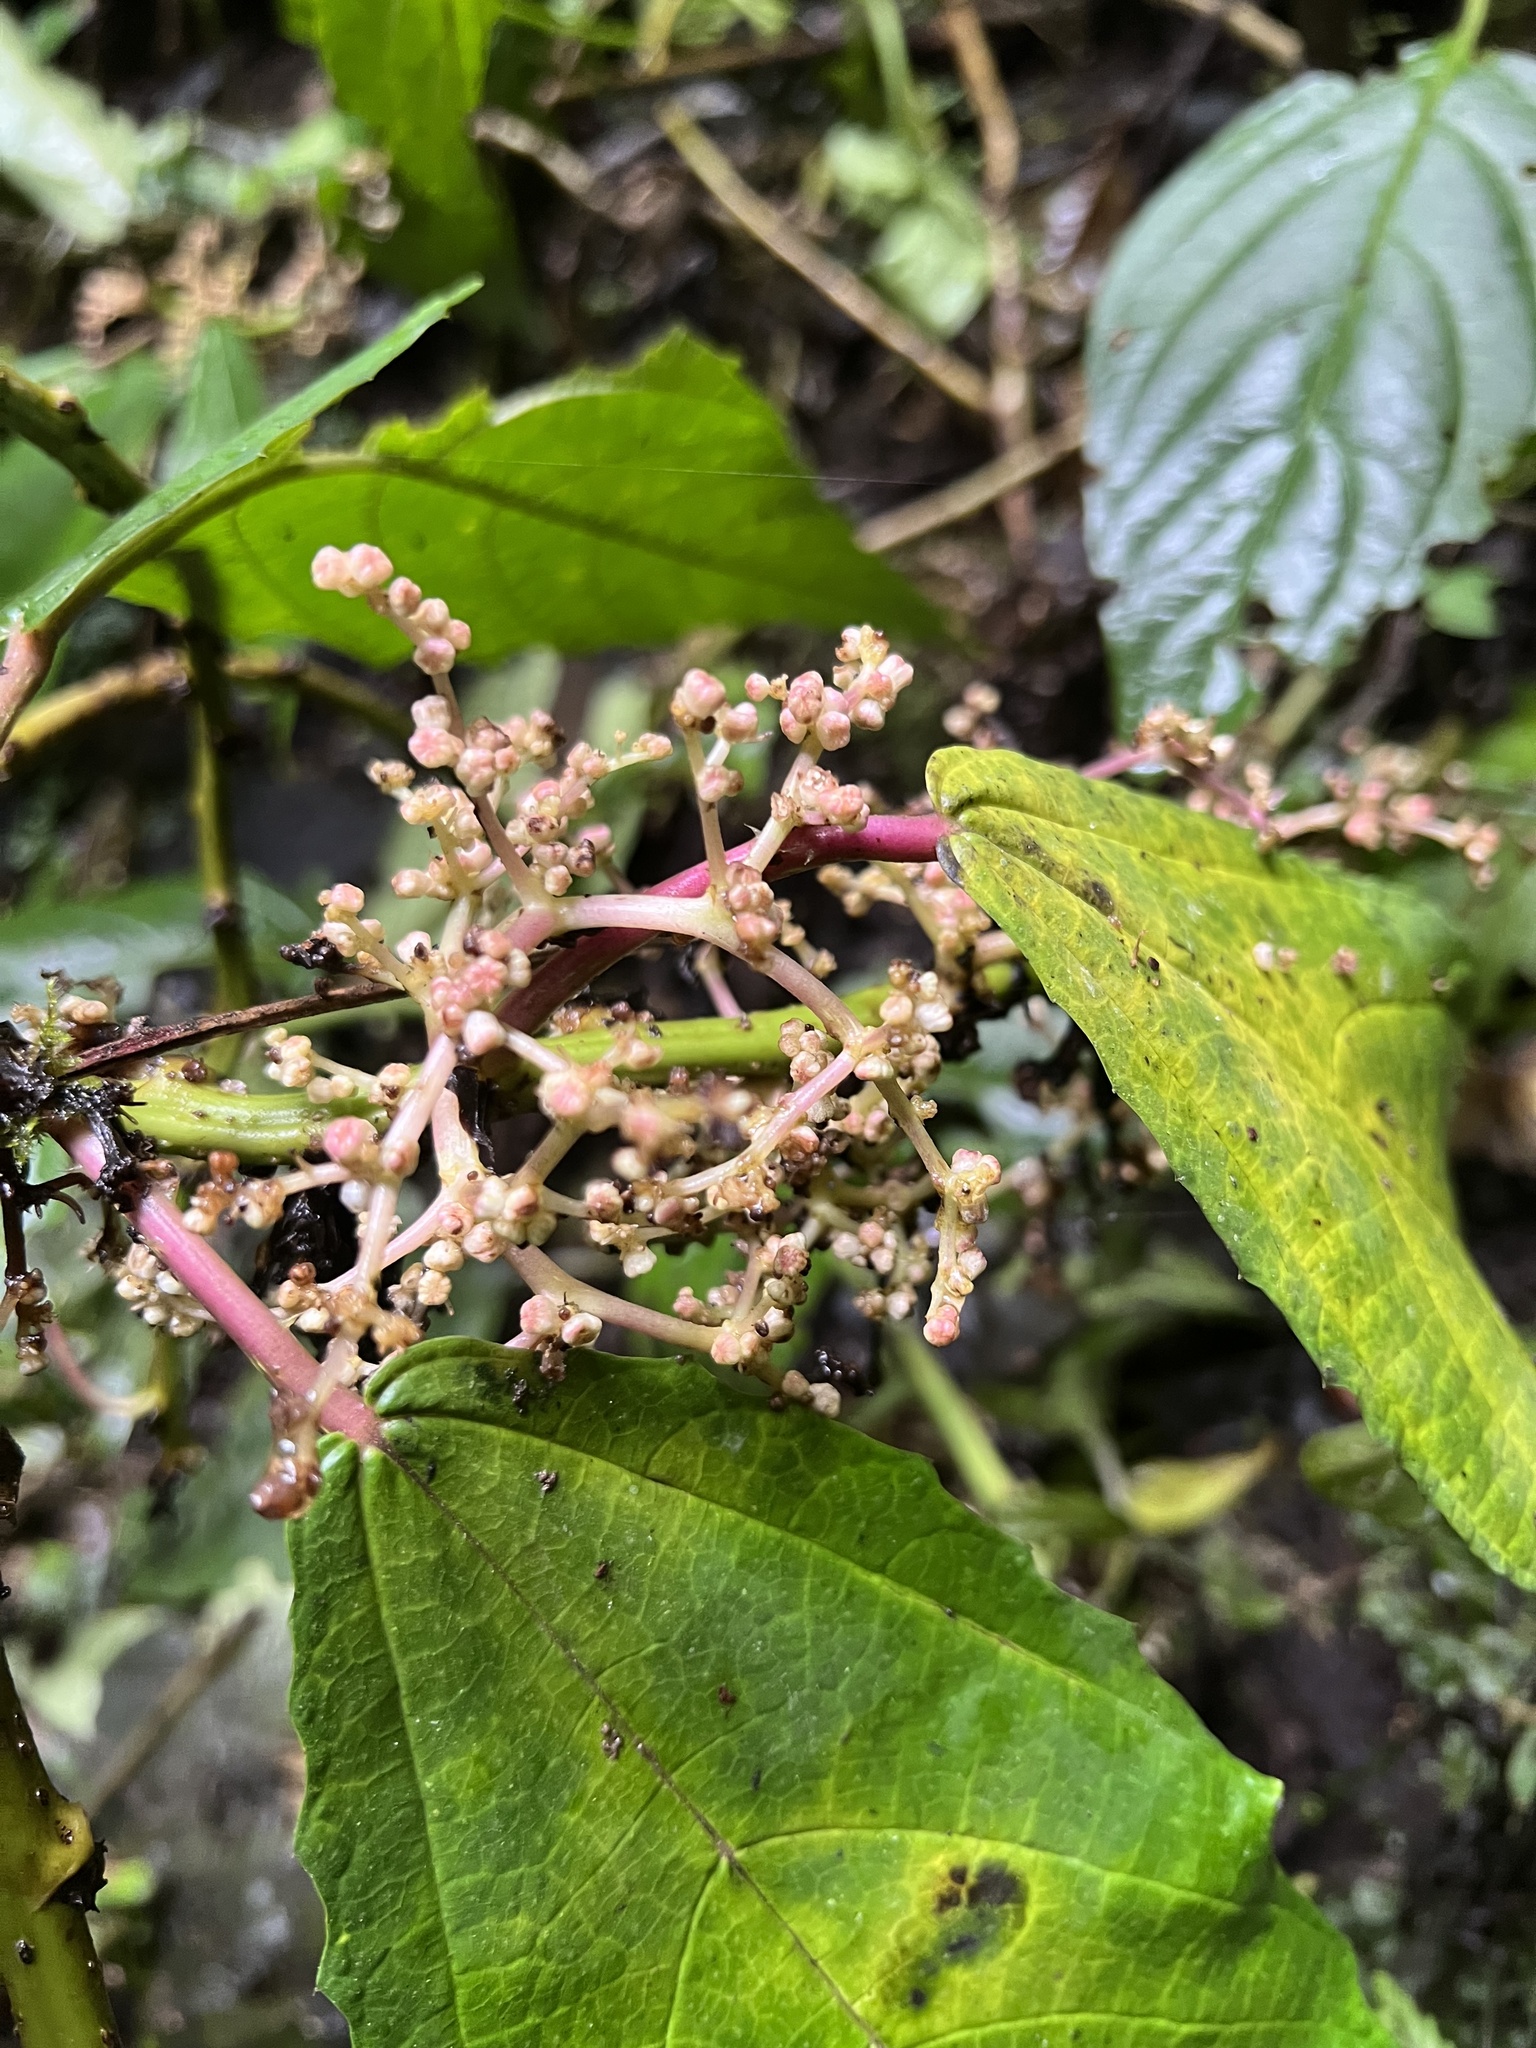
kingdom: Plantae
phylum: Tracheophyta
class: Magnoliopsida
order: Rosales
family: Urticaceae
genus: Urera
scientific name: Urera baccifera
